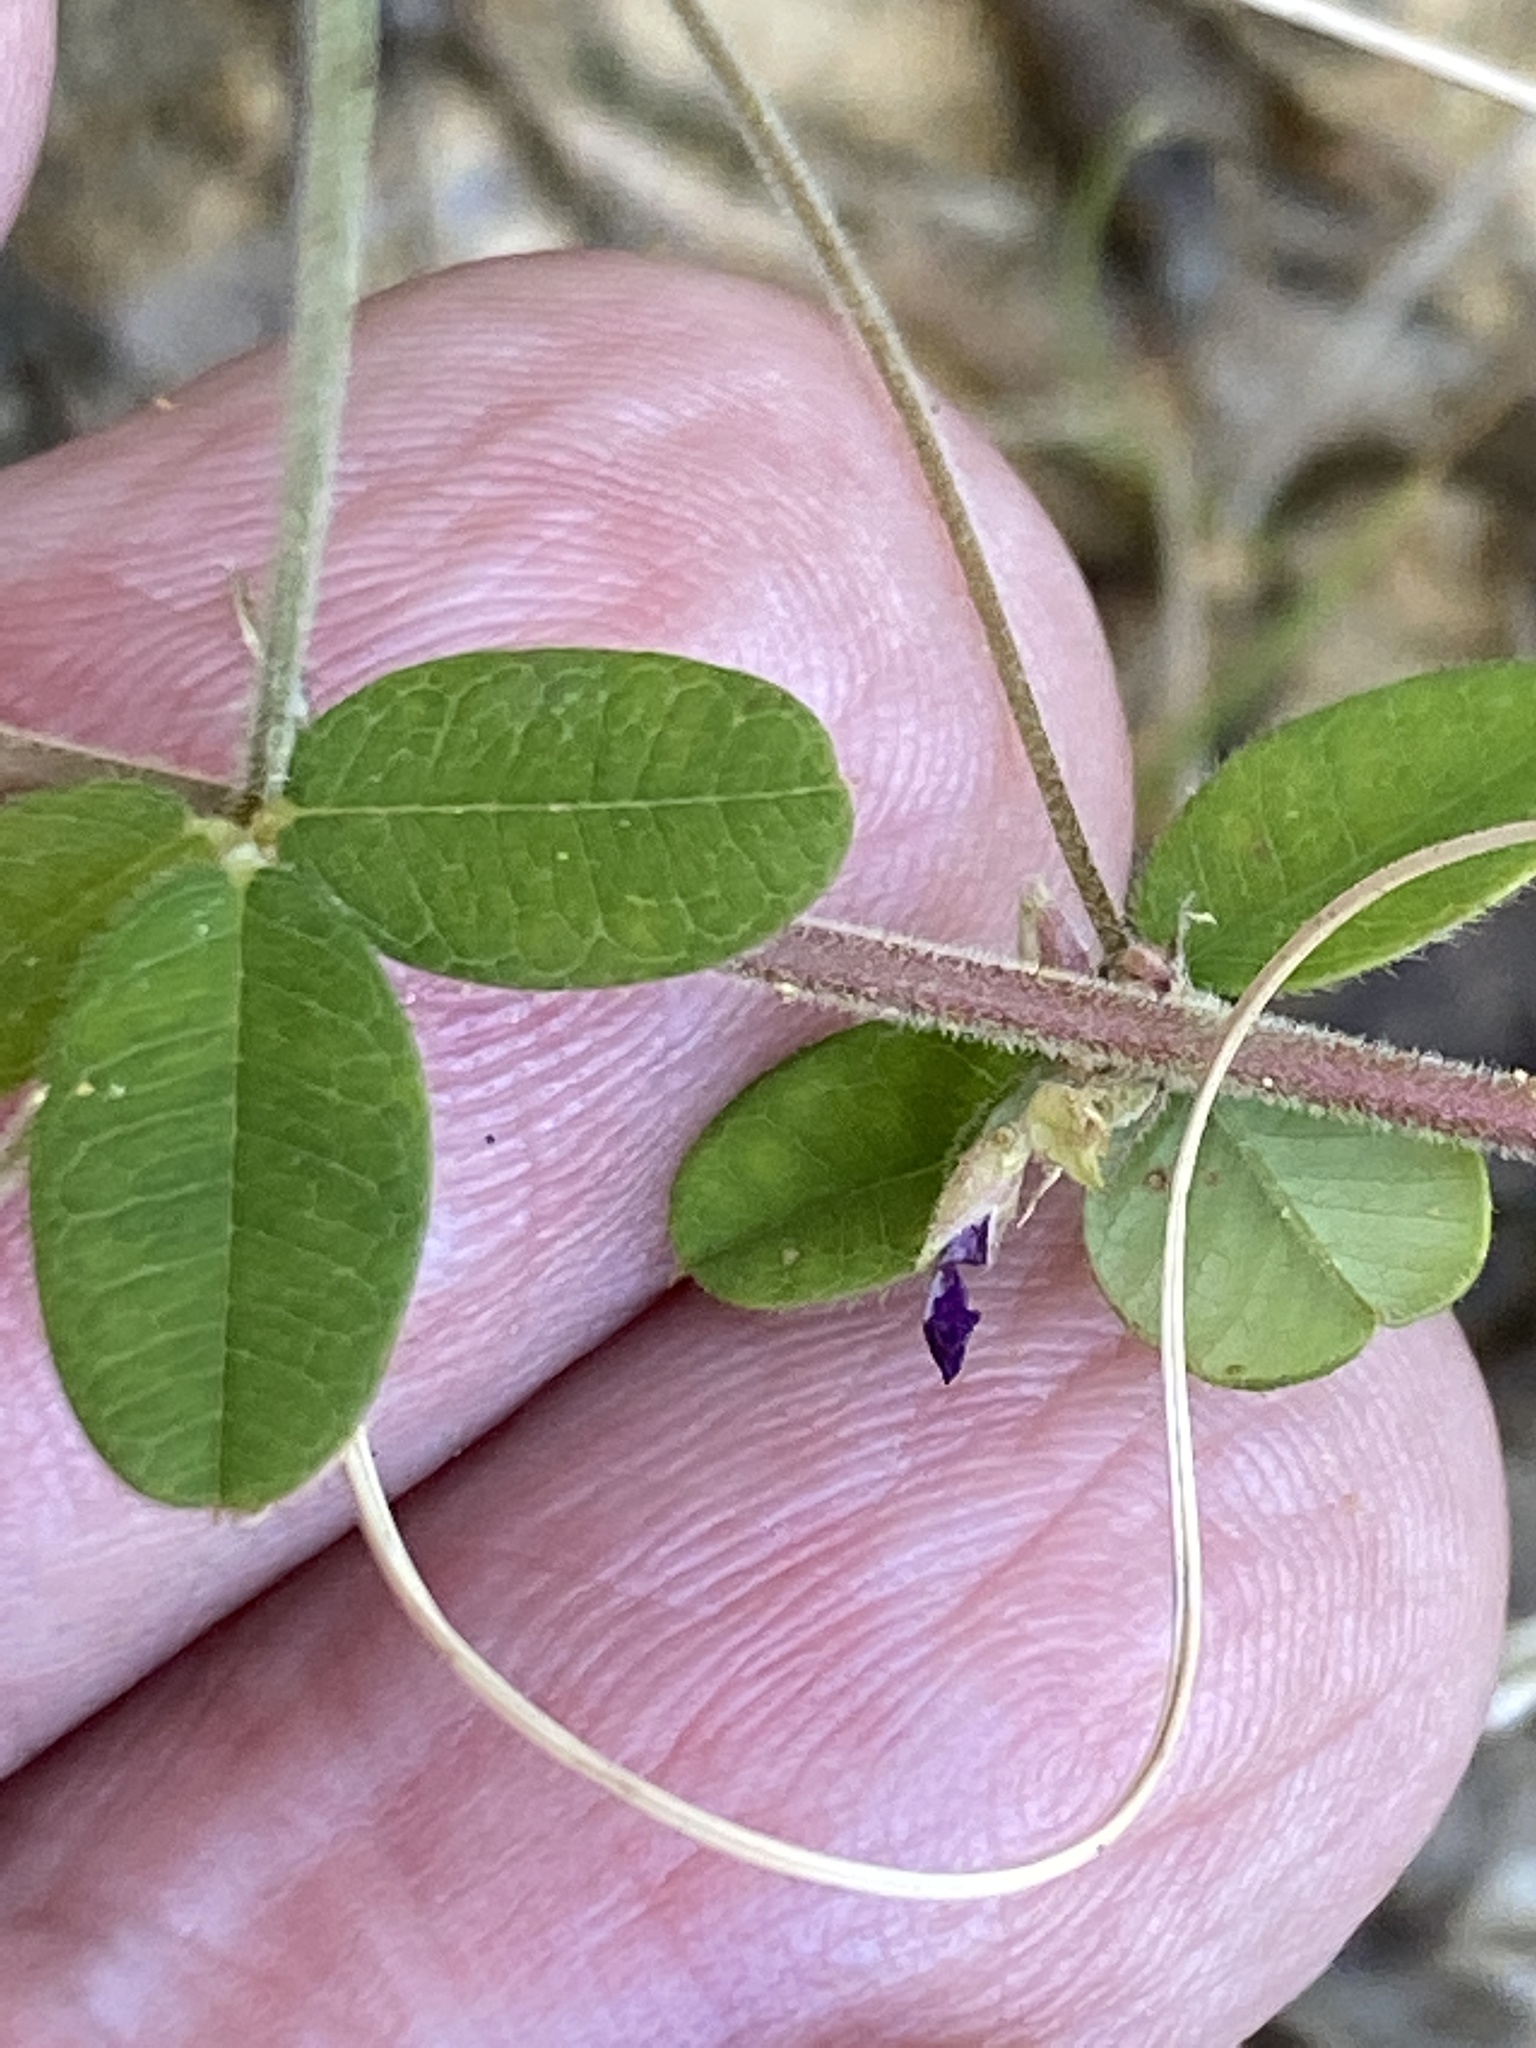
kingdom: Plantae
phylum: Tracheophyta
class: Magnoliopsida
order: Fabales
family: Fabaceae
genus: Lespedeza
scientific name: Lespedeza procumbens
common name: Downy trailing bush-clover
